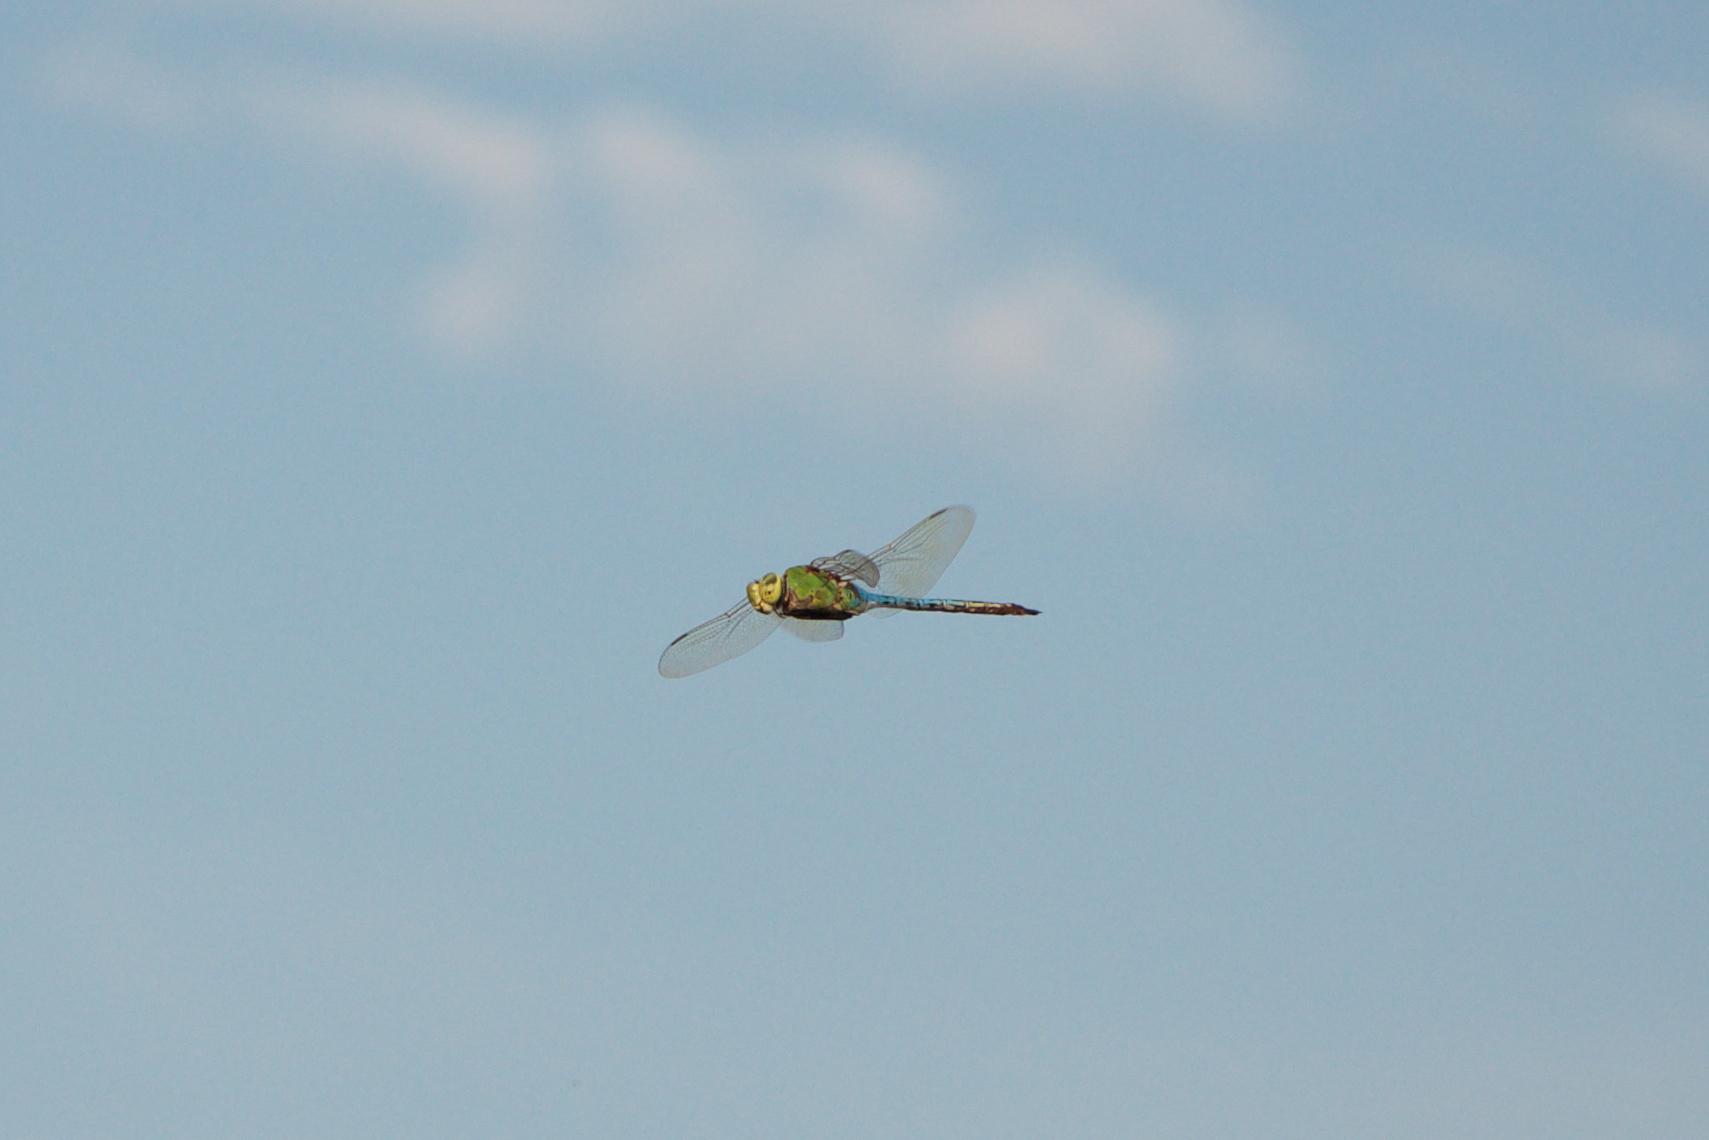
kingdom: Animalia
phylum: Arthropoda
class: Insecta
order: Odonata
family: Aeshnidae
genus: Anax
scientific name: Anax junius
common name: Common green darner
